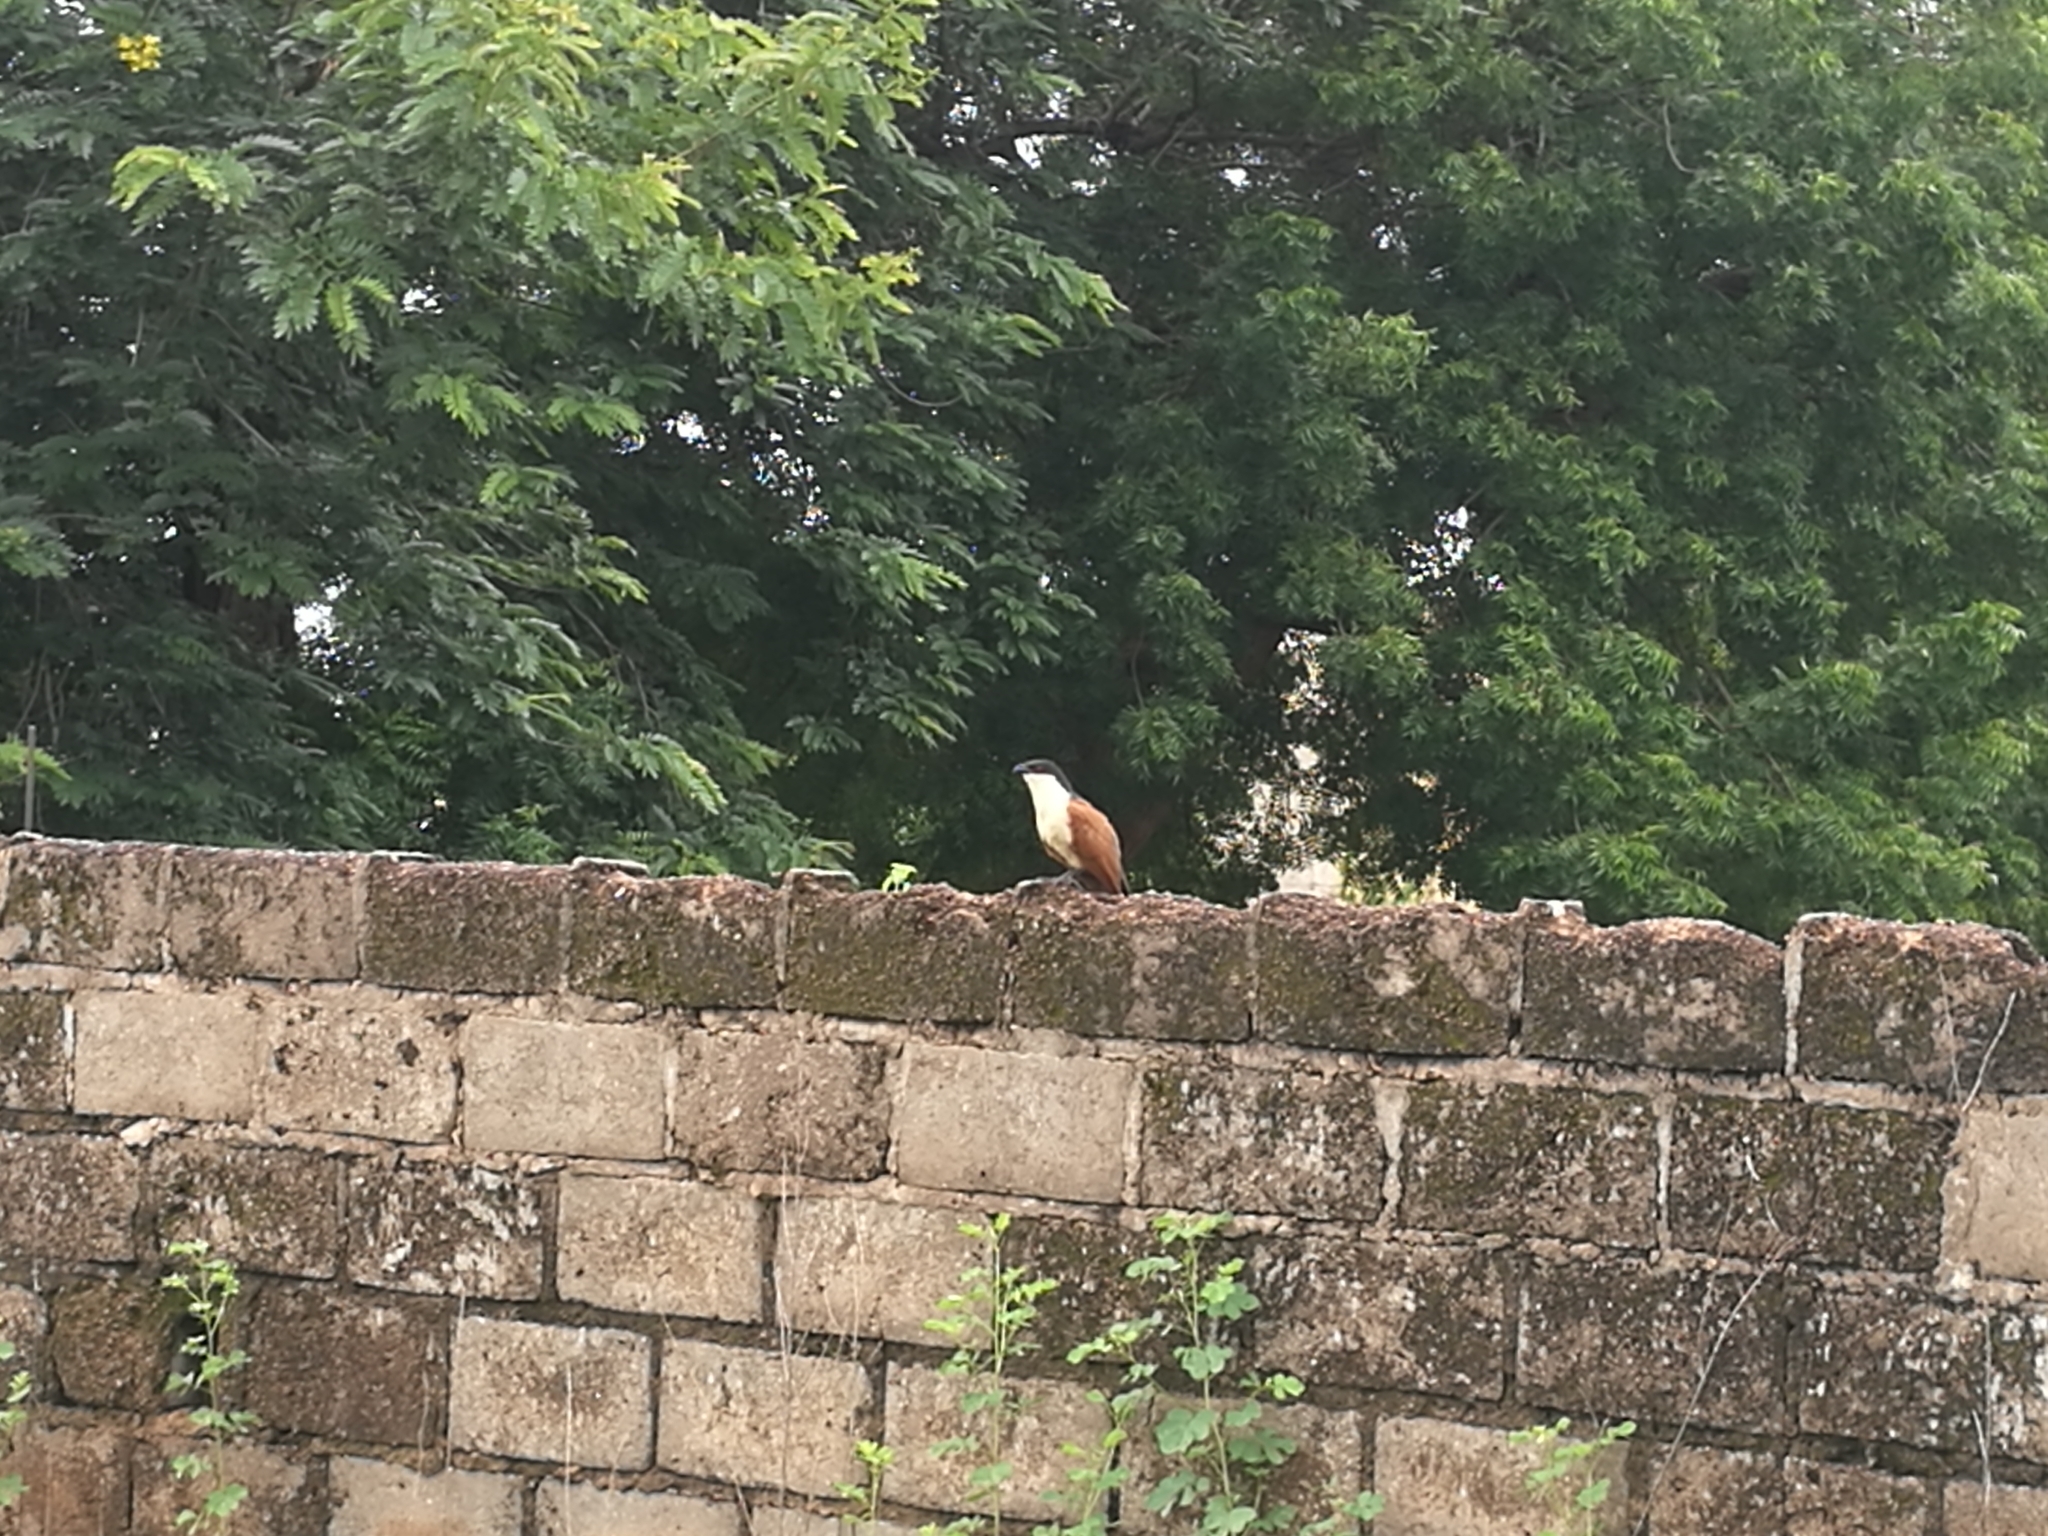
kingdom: Animalia
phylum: Chordata
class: Aves
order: Cuculiformes
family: Cuculidae
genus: Centropus
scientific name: Centropus senegalensis
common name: Senegal coucal
